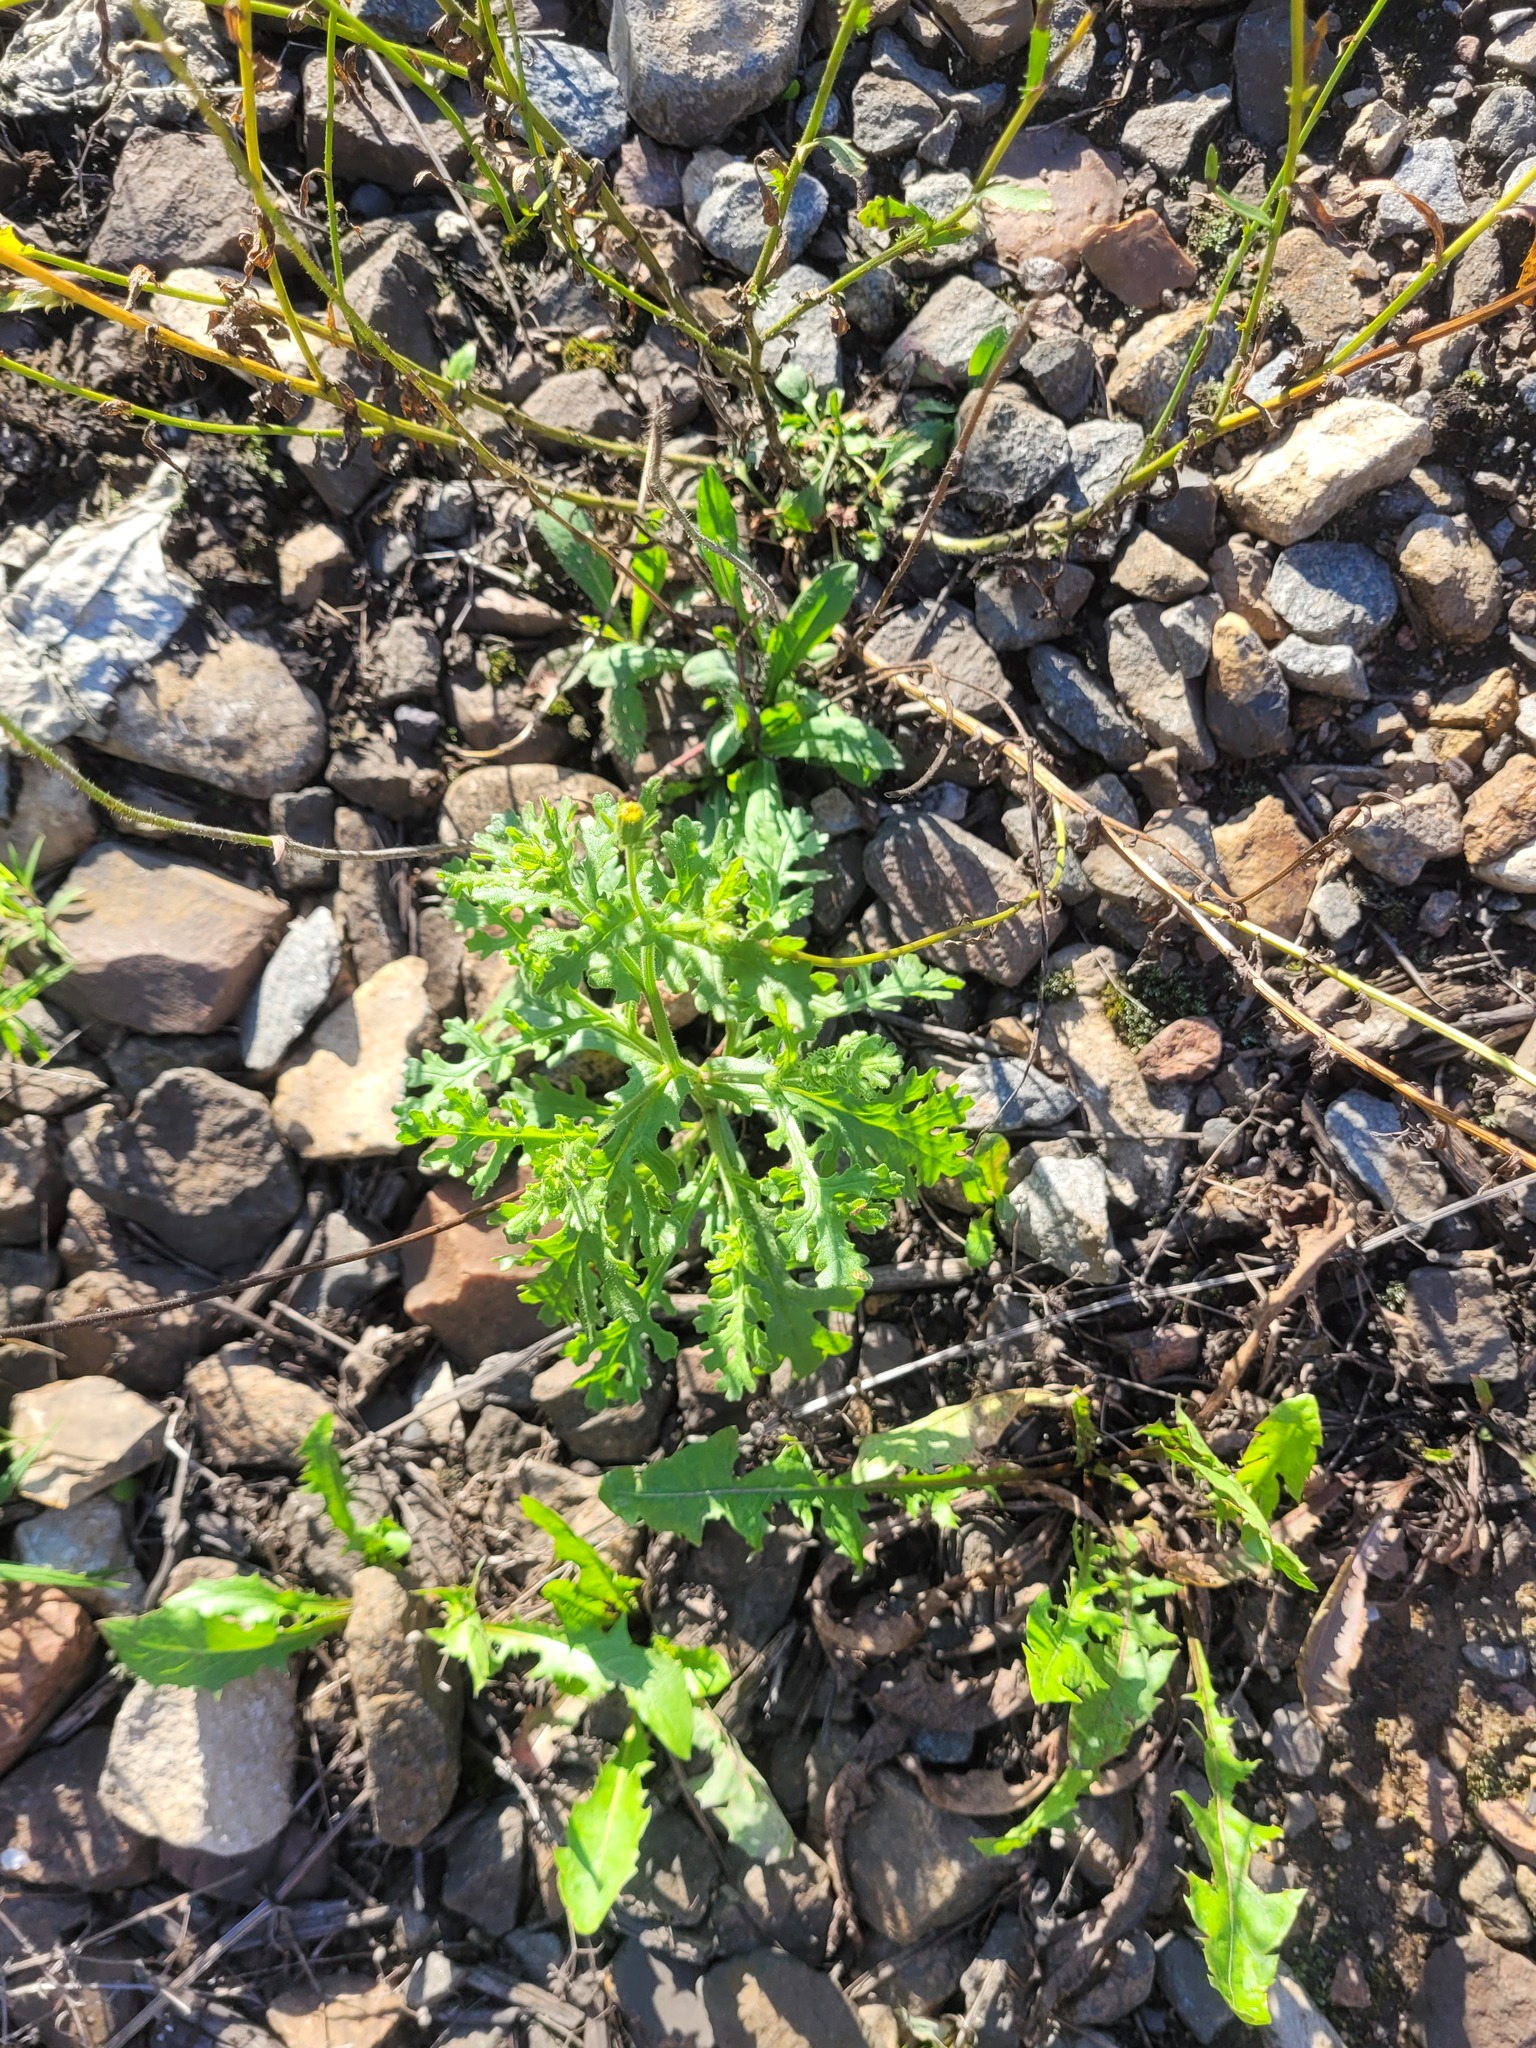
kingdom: Plantae
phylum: Tracheophyta
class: Magnoliopsida
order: Asterales
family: Asteraceae
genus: Senecio
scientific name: Senecio viscosus
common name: Sticky groundsel
